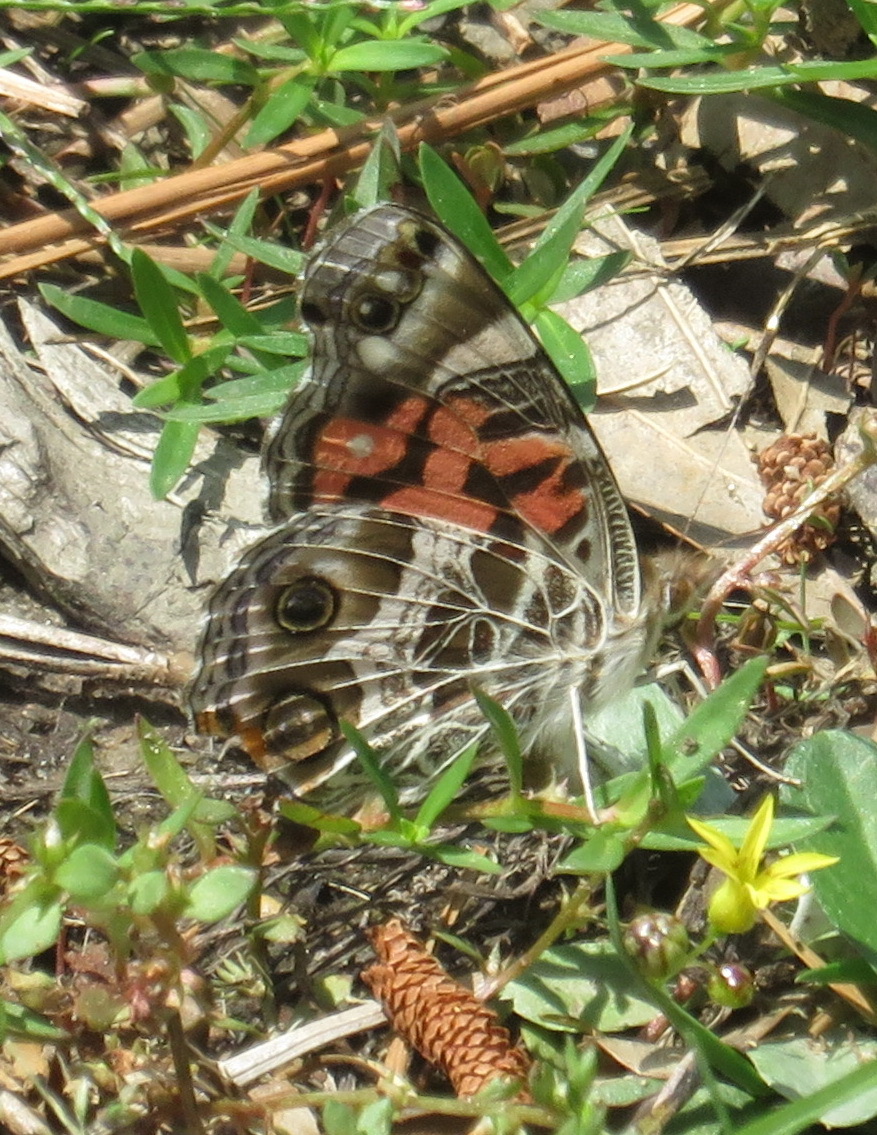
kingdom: Animalia
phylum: Arthropoda
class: Insecta
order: Lepidoptera
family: Nymphalidae
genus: Vanessa
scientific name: Vanessa virginiensis
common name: American lady
